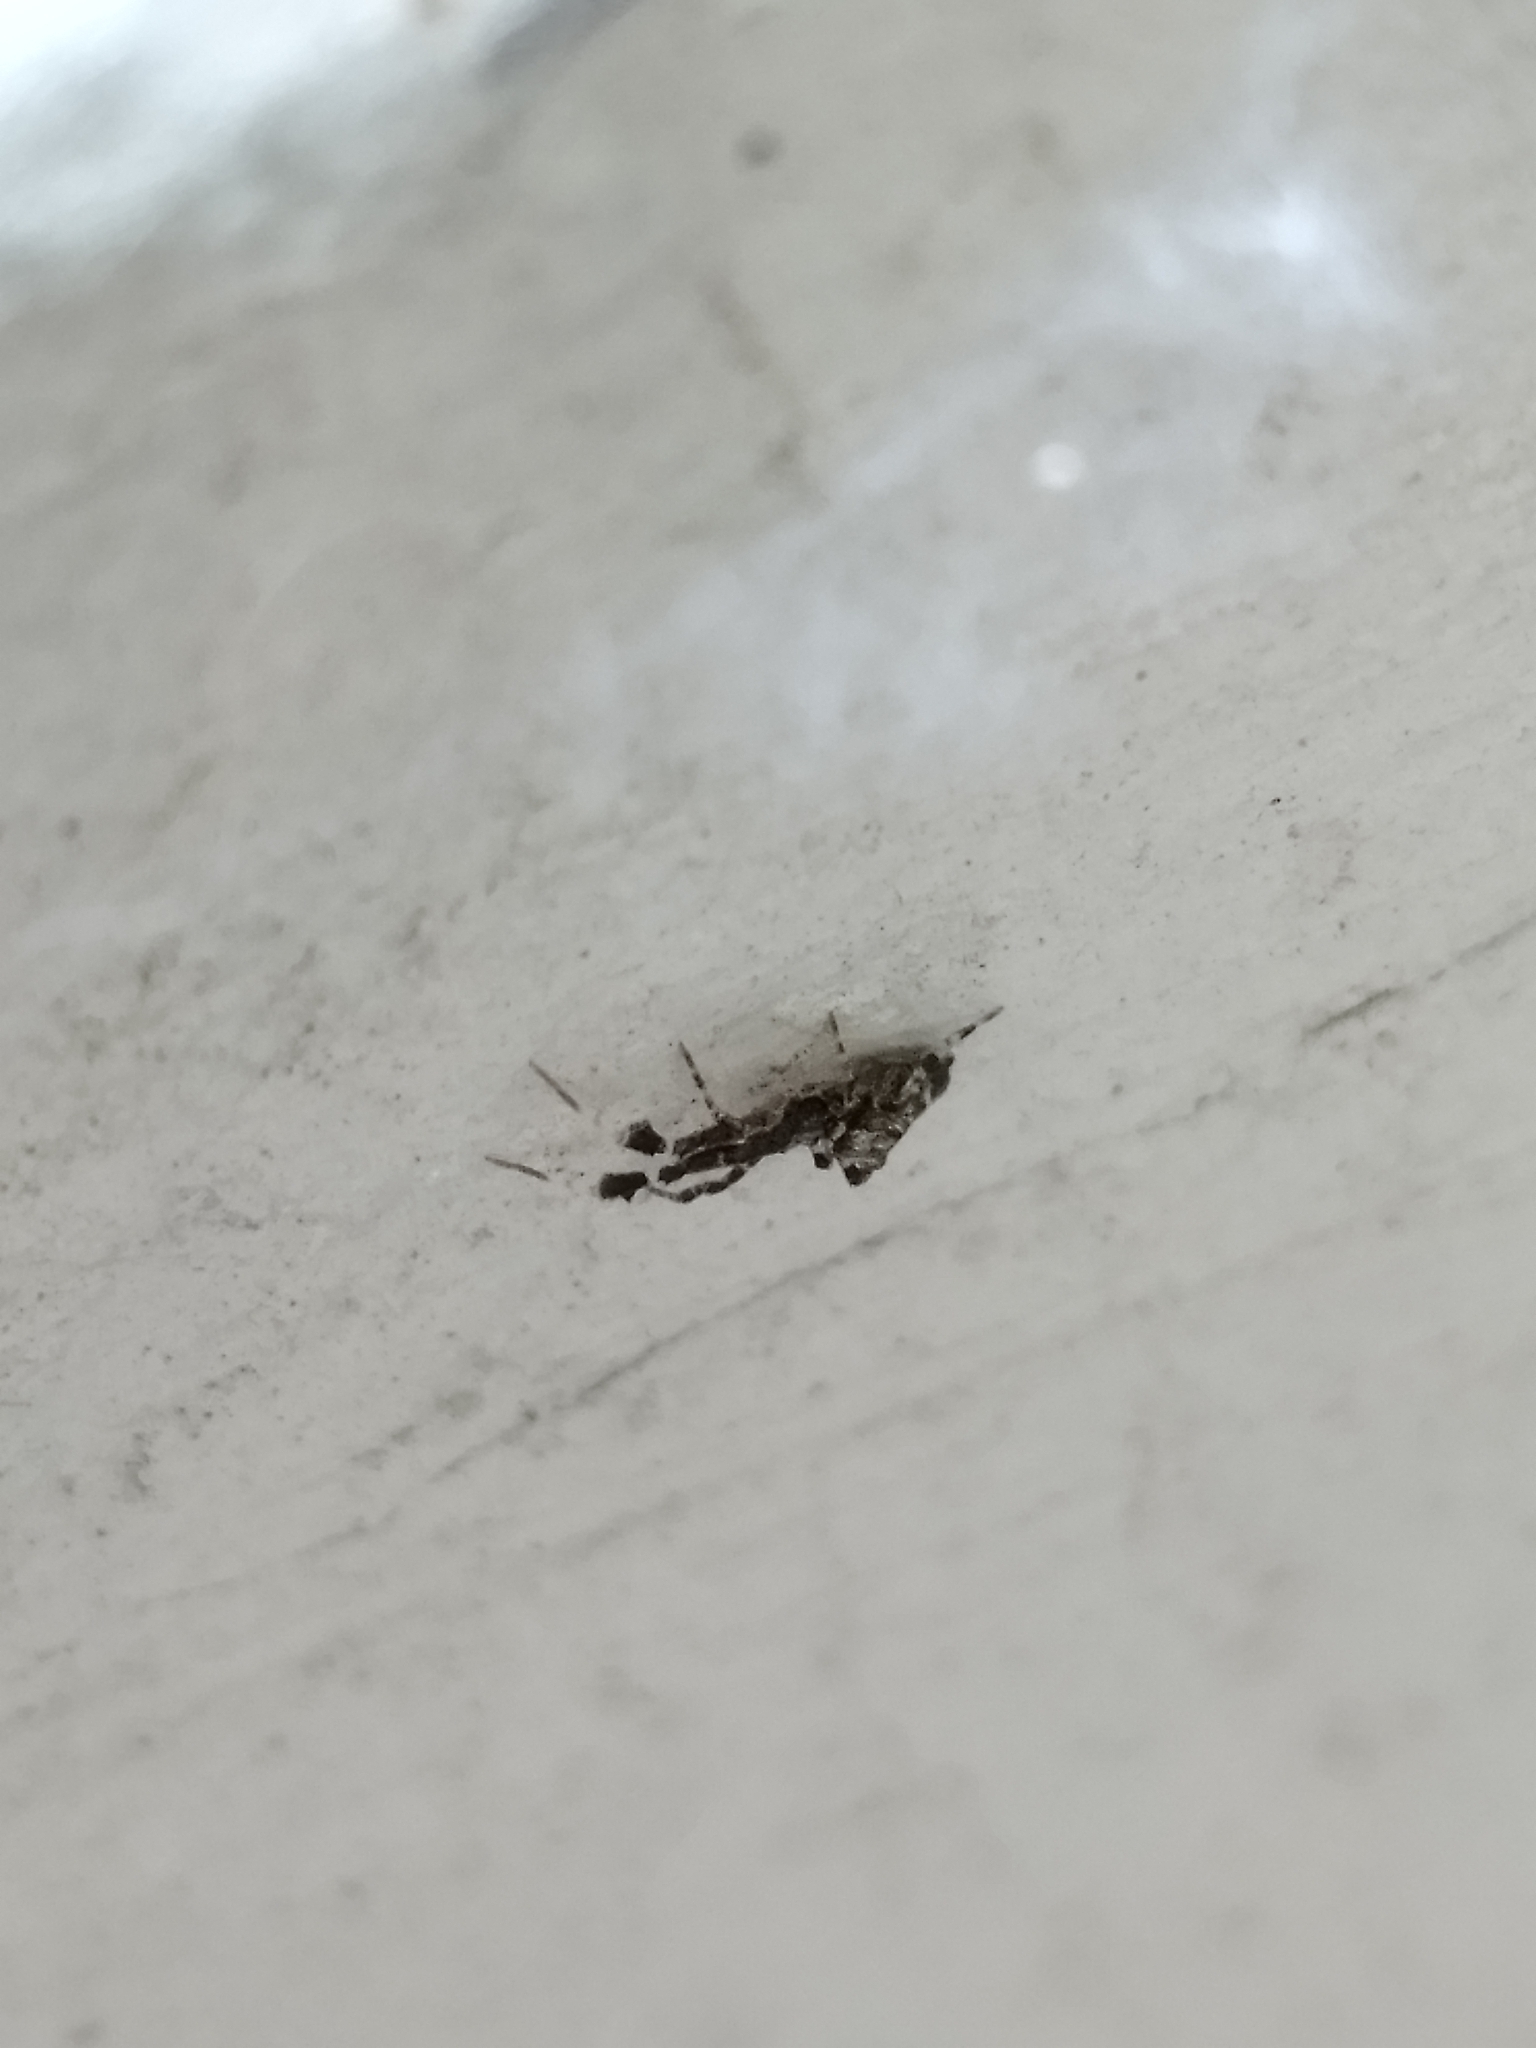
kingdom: Animalia
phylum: Arthropoda
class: Arachnida
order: Araneae
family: Uloboridae
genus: Uloborus
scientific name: Uloborus plumipes
